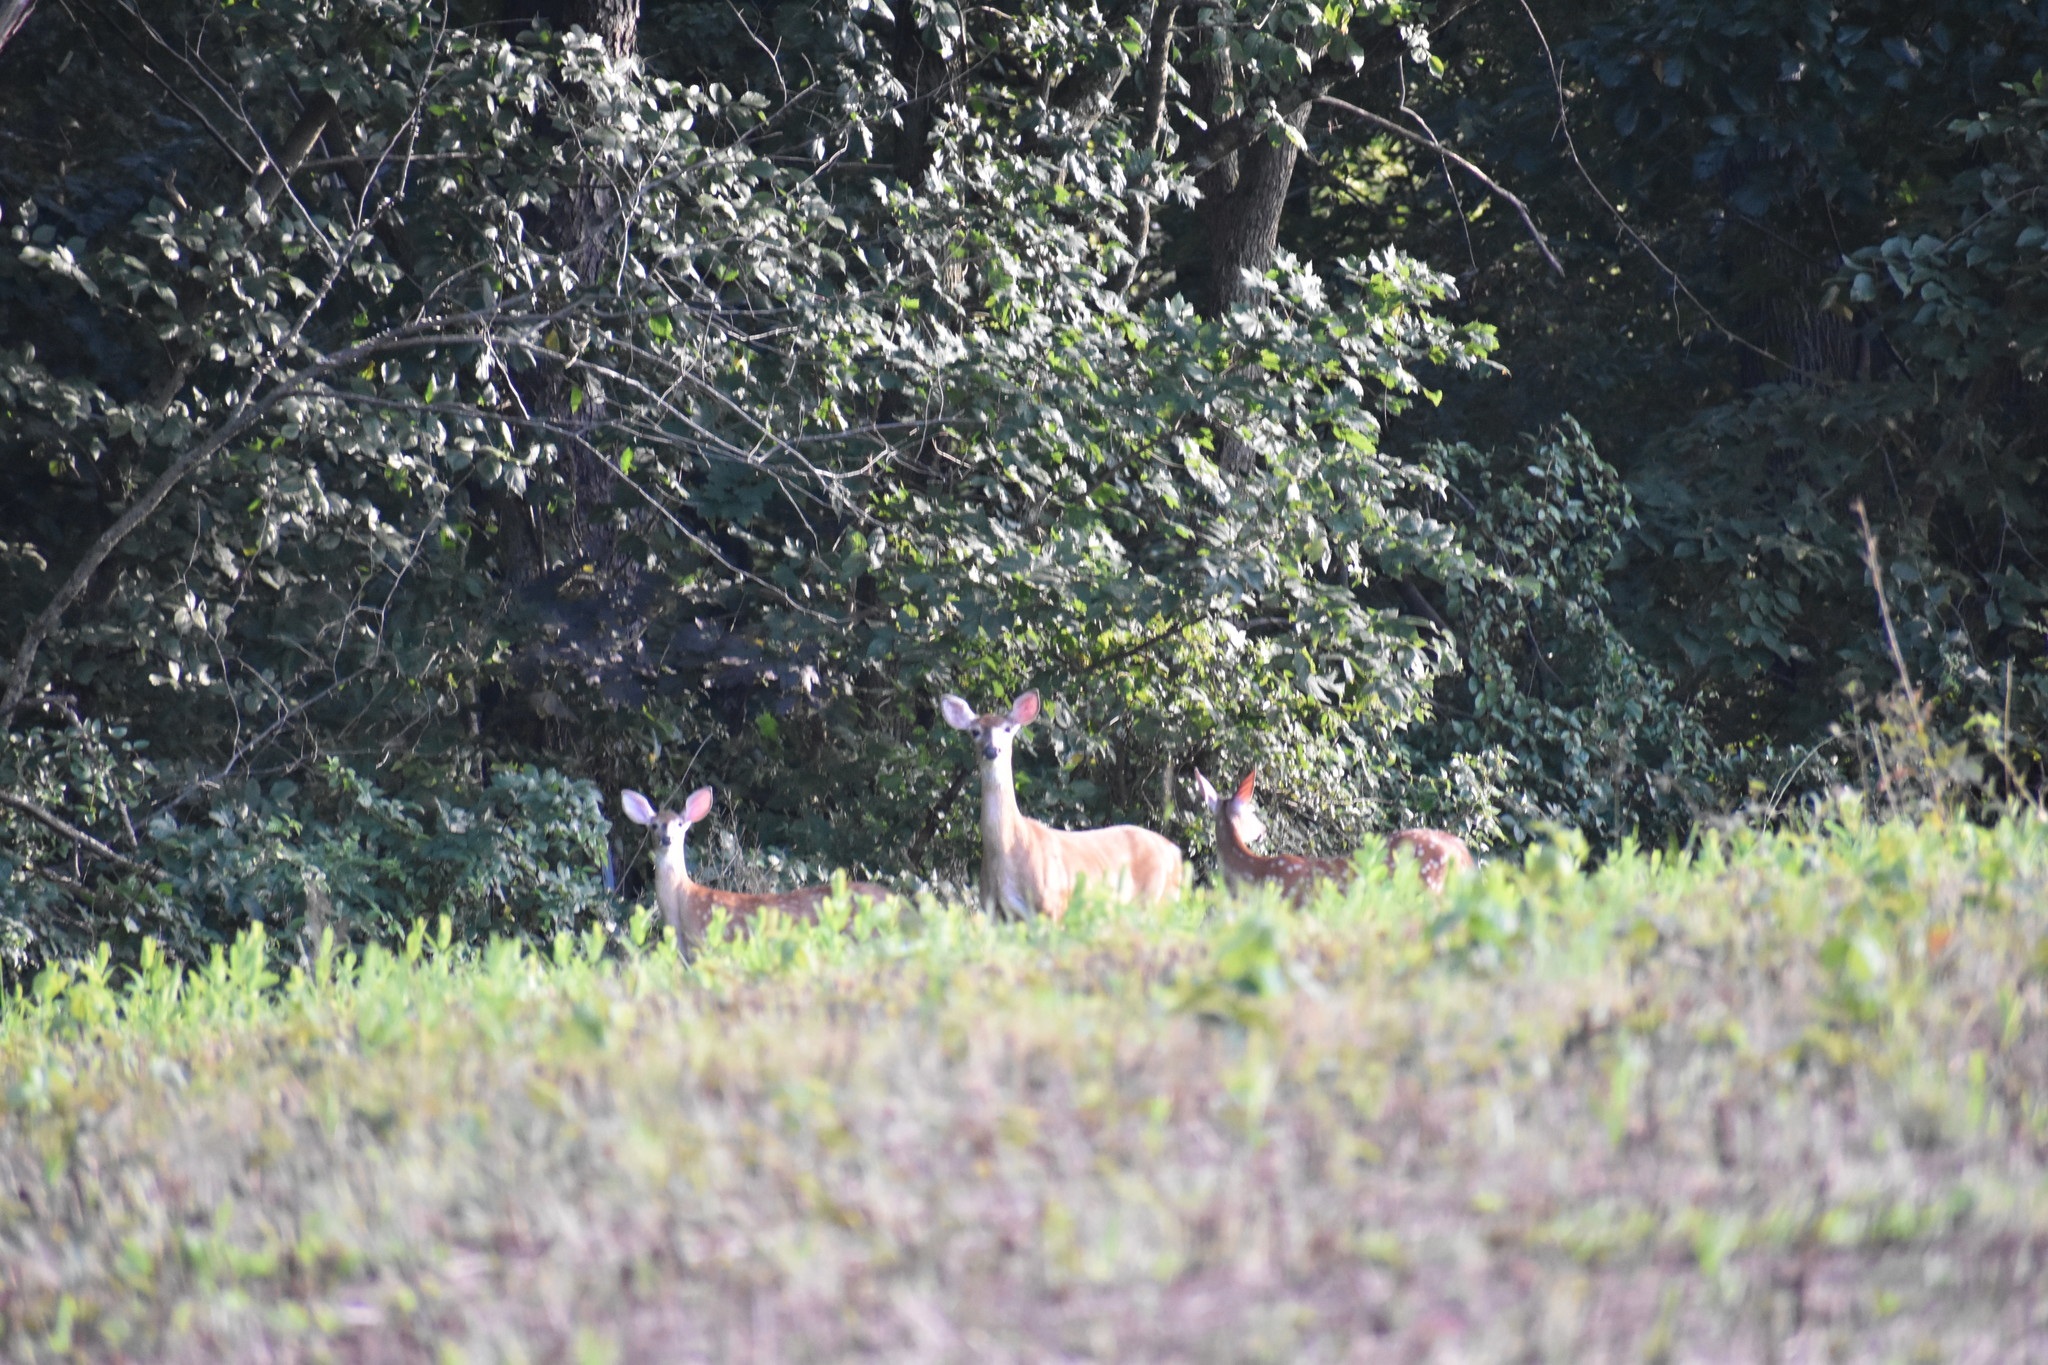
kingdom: Animalia
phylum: Chordata
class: Mammalia
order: Artiodactyla
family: Cervidae
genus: Odocoileus
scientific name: Odocoileus virginianus
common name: White-tailed deer
